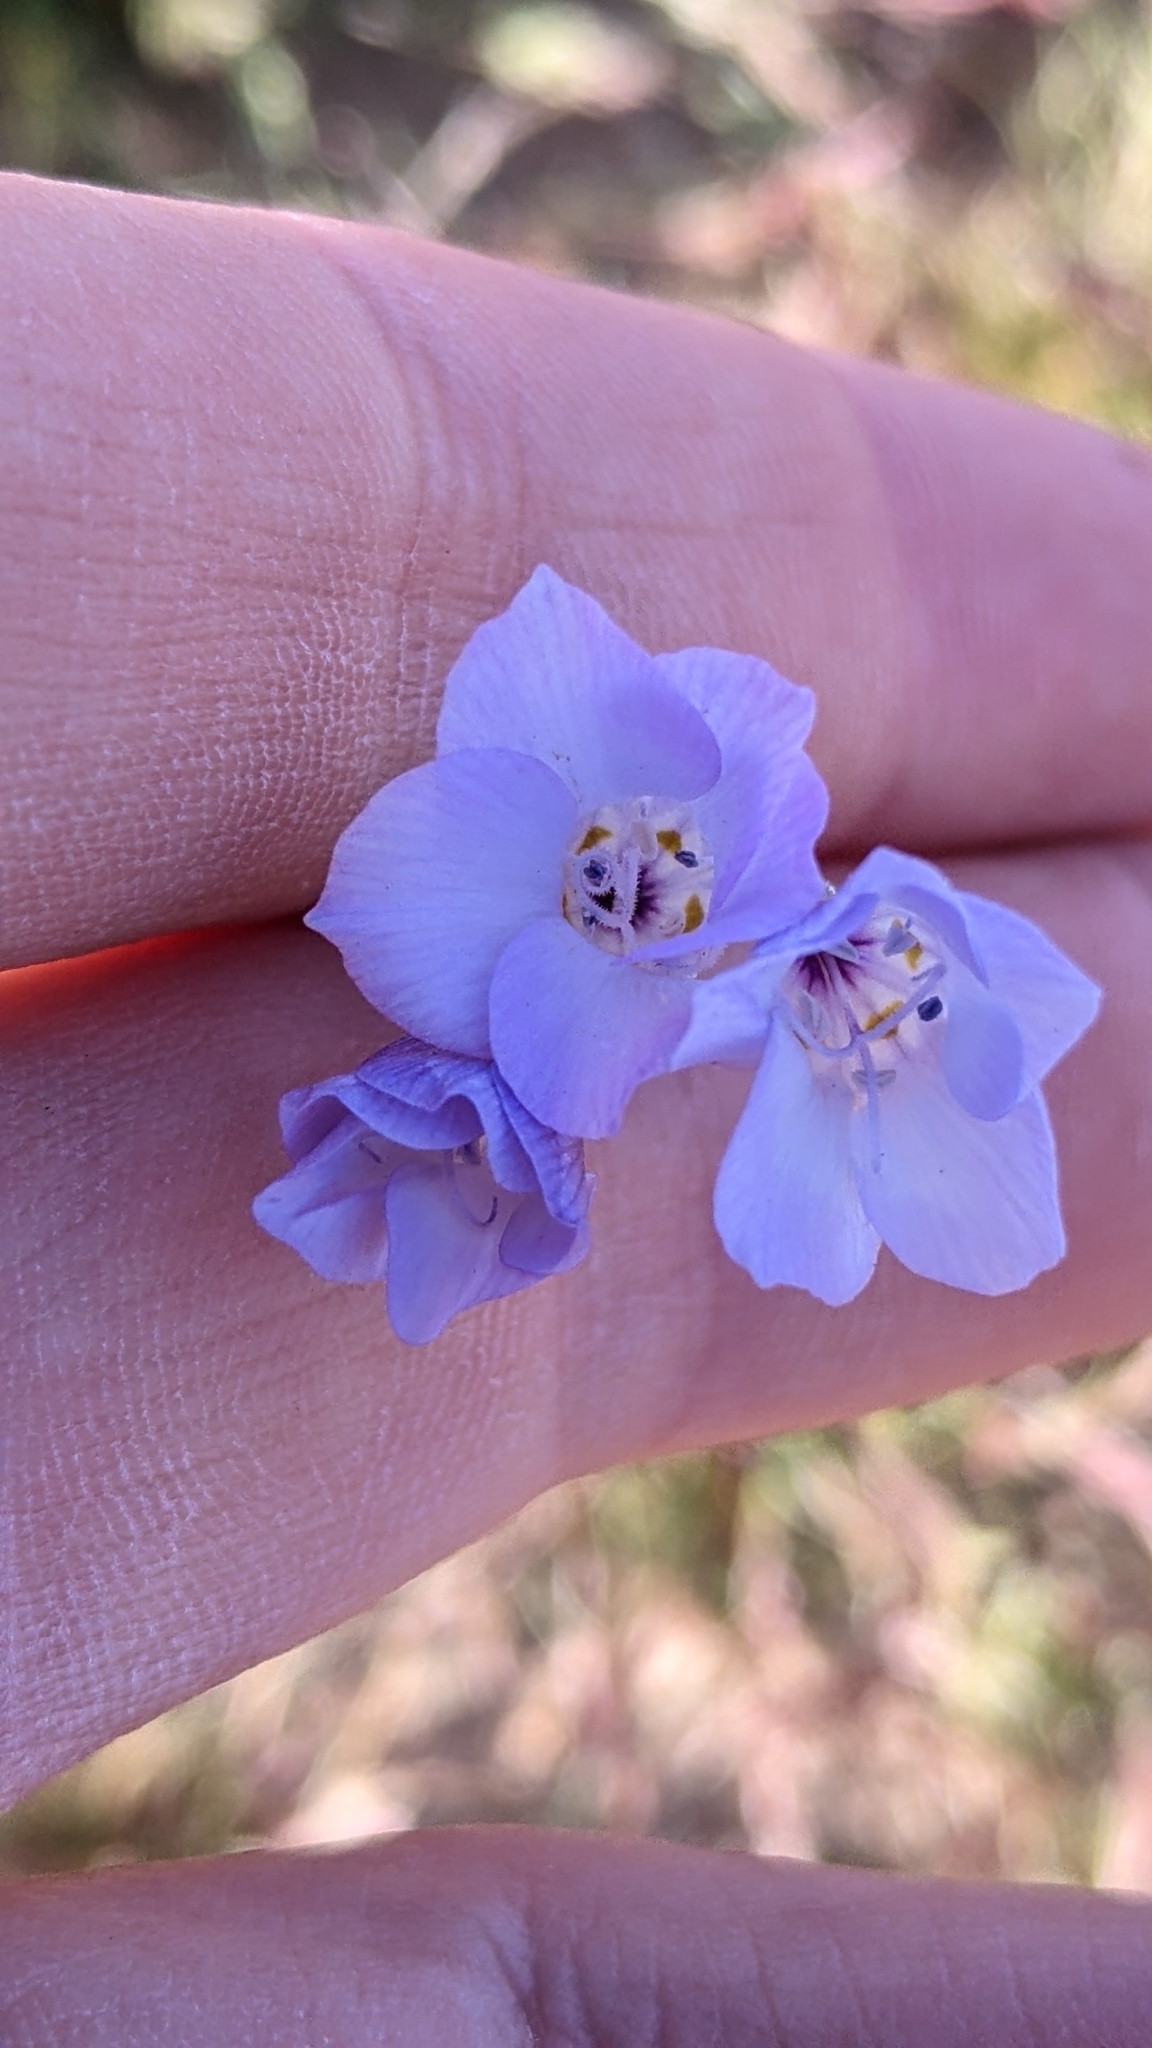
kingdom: Plantae
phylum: Tracheophyta
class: Magnoliopsida
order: Ericales
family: Polemoniaceae
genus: Gilia
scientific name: Gilia latiflora
